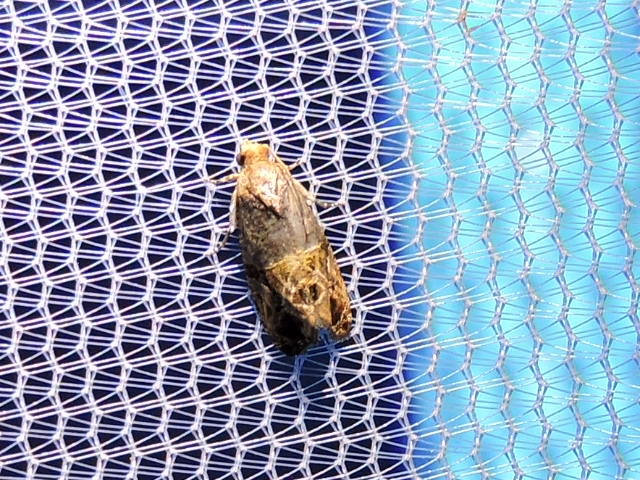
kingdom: Animalia
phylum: Arthropoda
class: Insecta
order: Lepidoptera
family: Tortricidae
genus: Paralobesia
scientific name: Paralobesia viteana
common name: Grape berry moth
